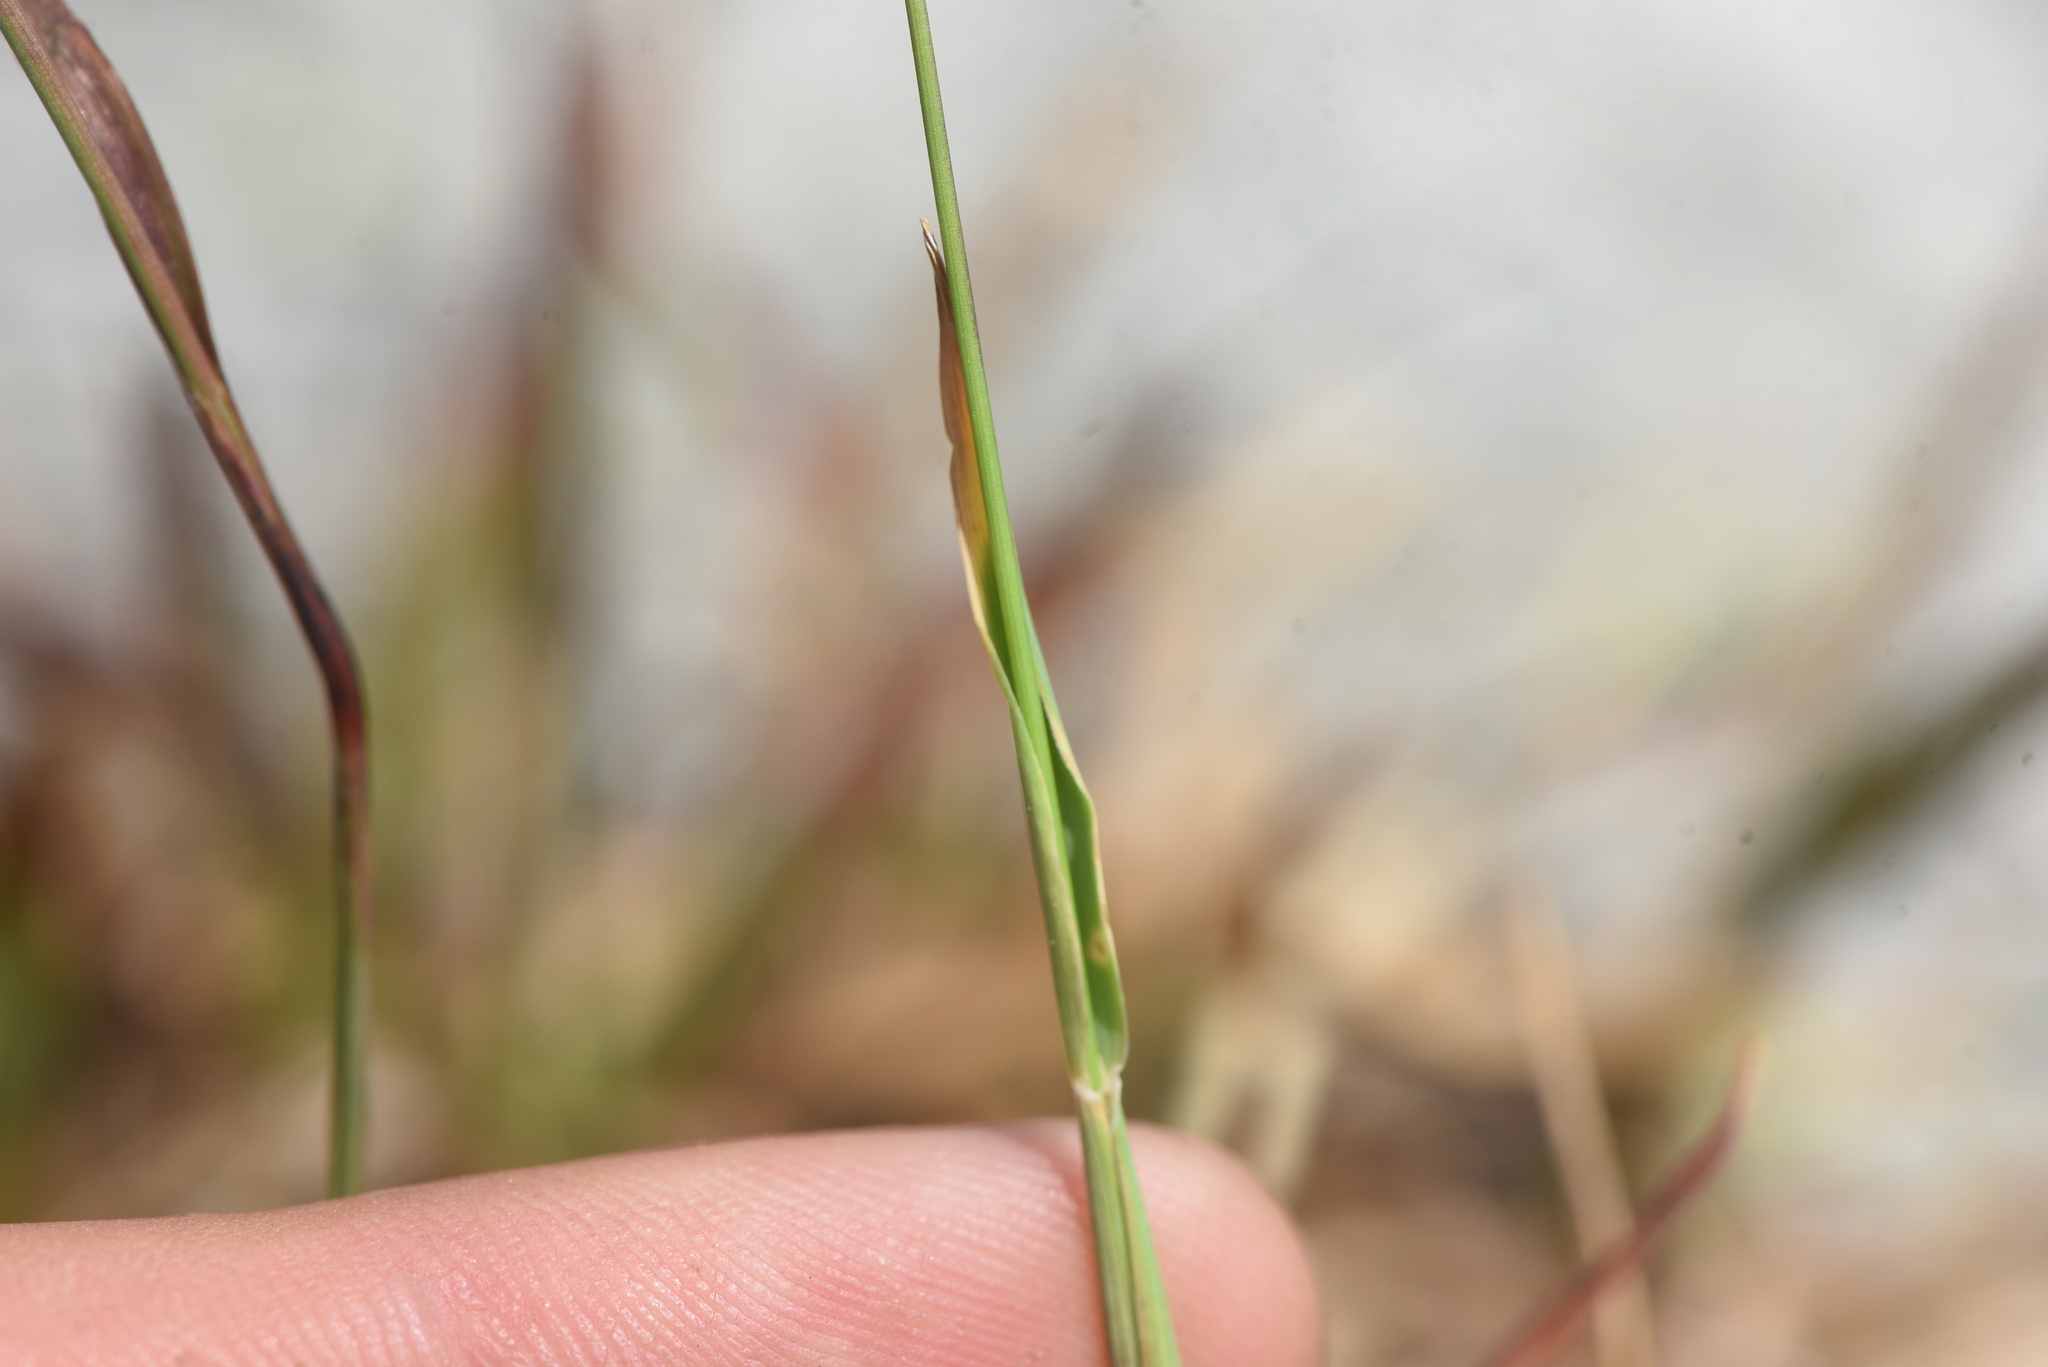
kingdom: Plantae
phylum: Tracheophyta
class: Liliopsida
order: Poales
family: Poaceae
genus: Phleum
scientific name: Phleum alpinum
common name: Alpine cat's-tail
